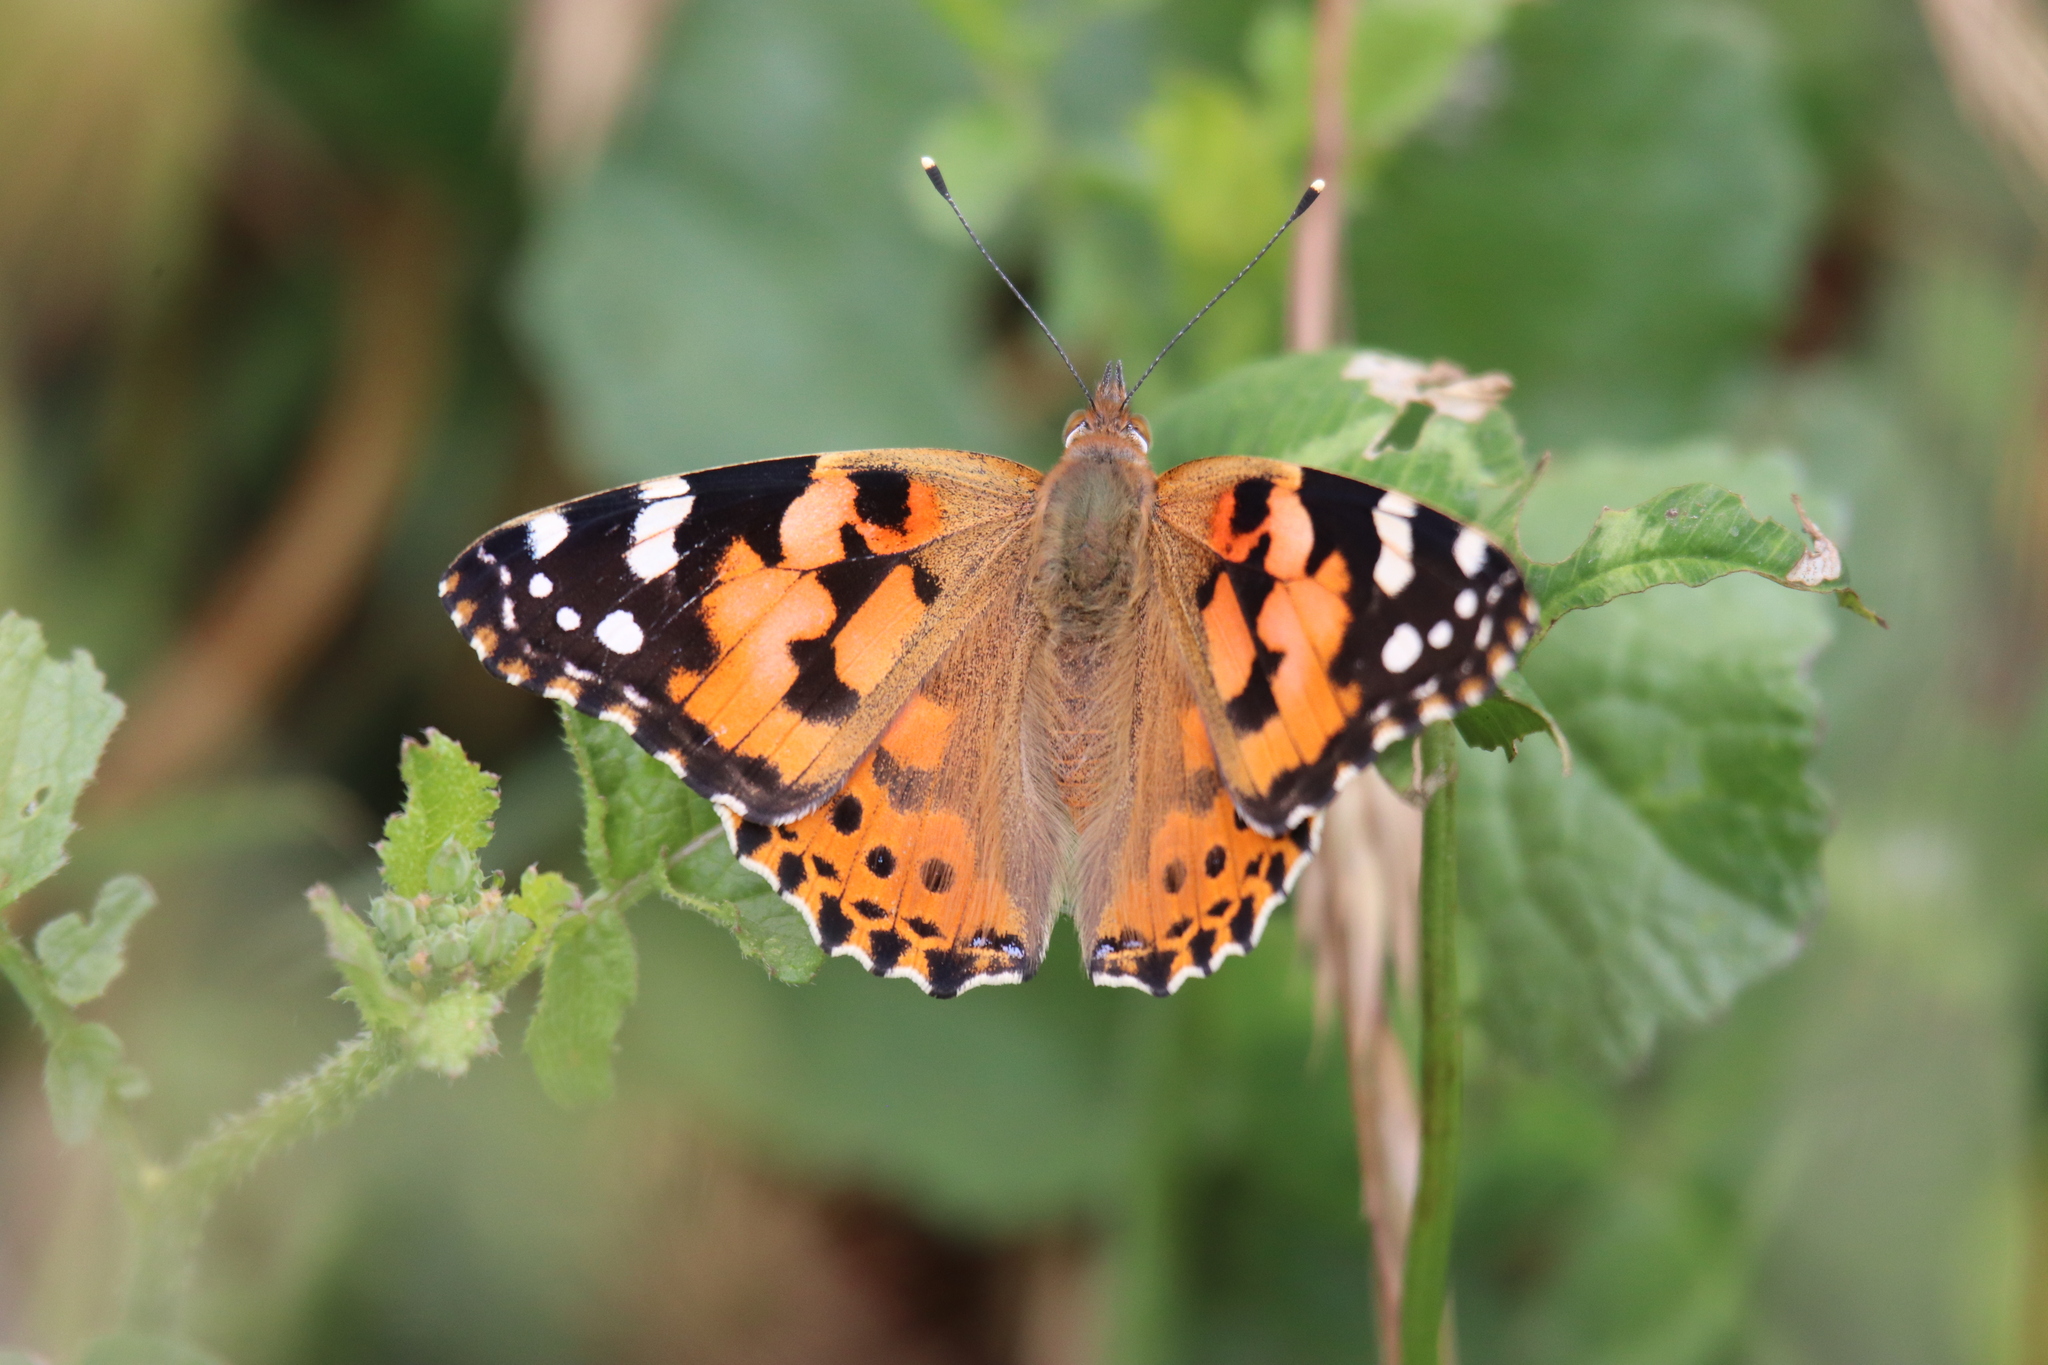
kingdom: Animalia
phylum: Arthropoda
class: Insecta
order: Lepidoptera
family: Nymphalidae
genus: Vanessa
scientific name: Vanessa cardui
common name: Painted lady
